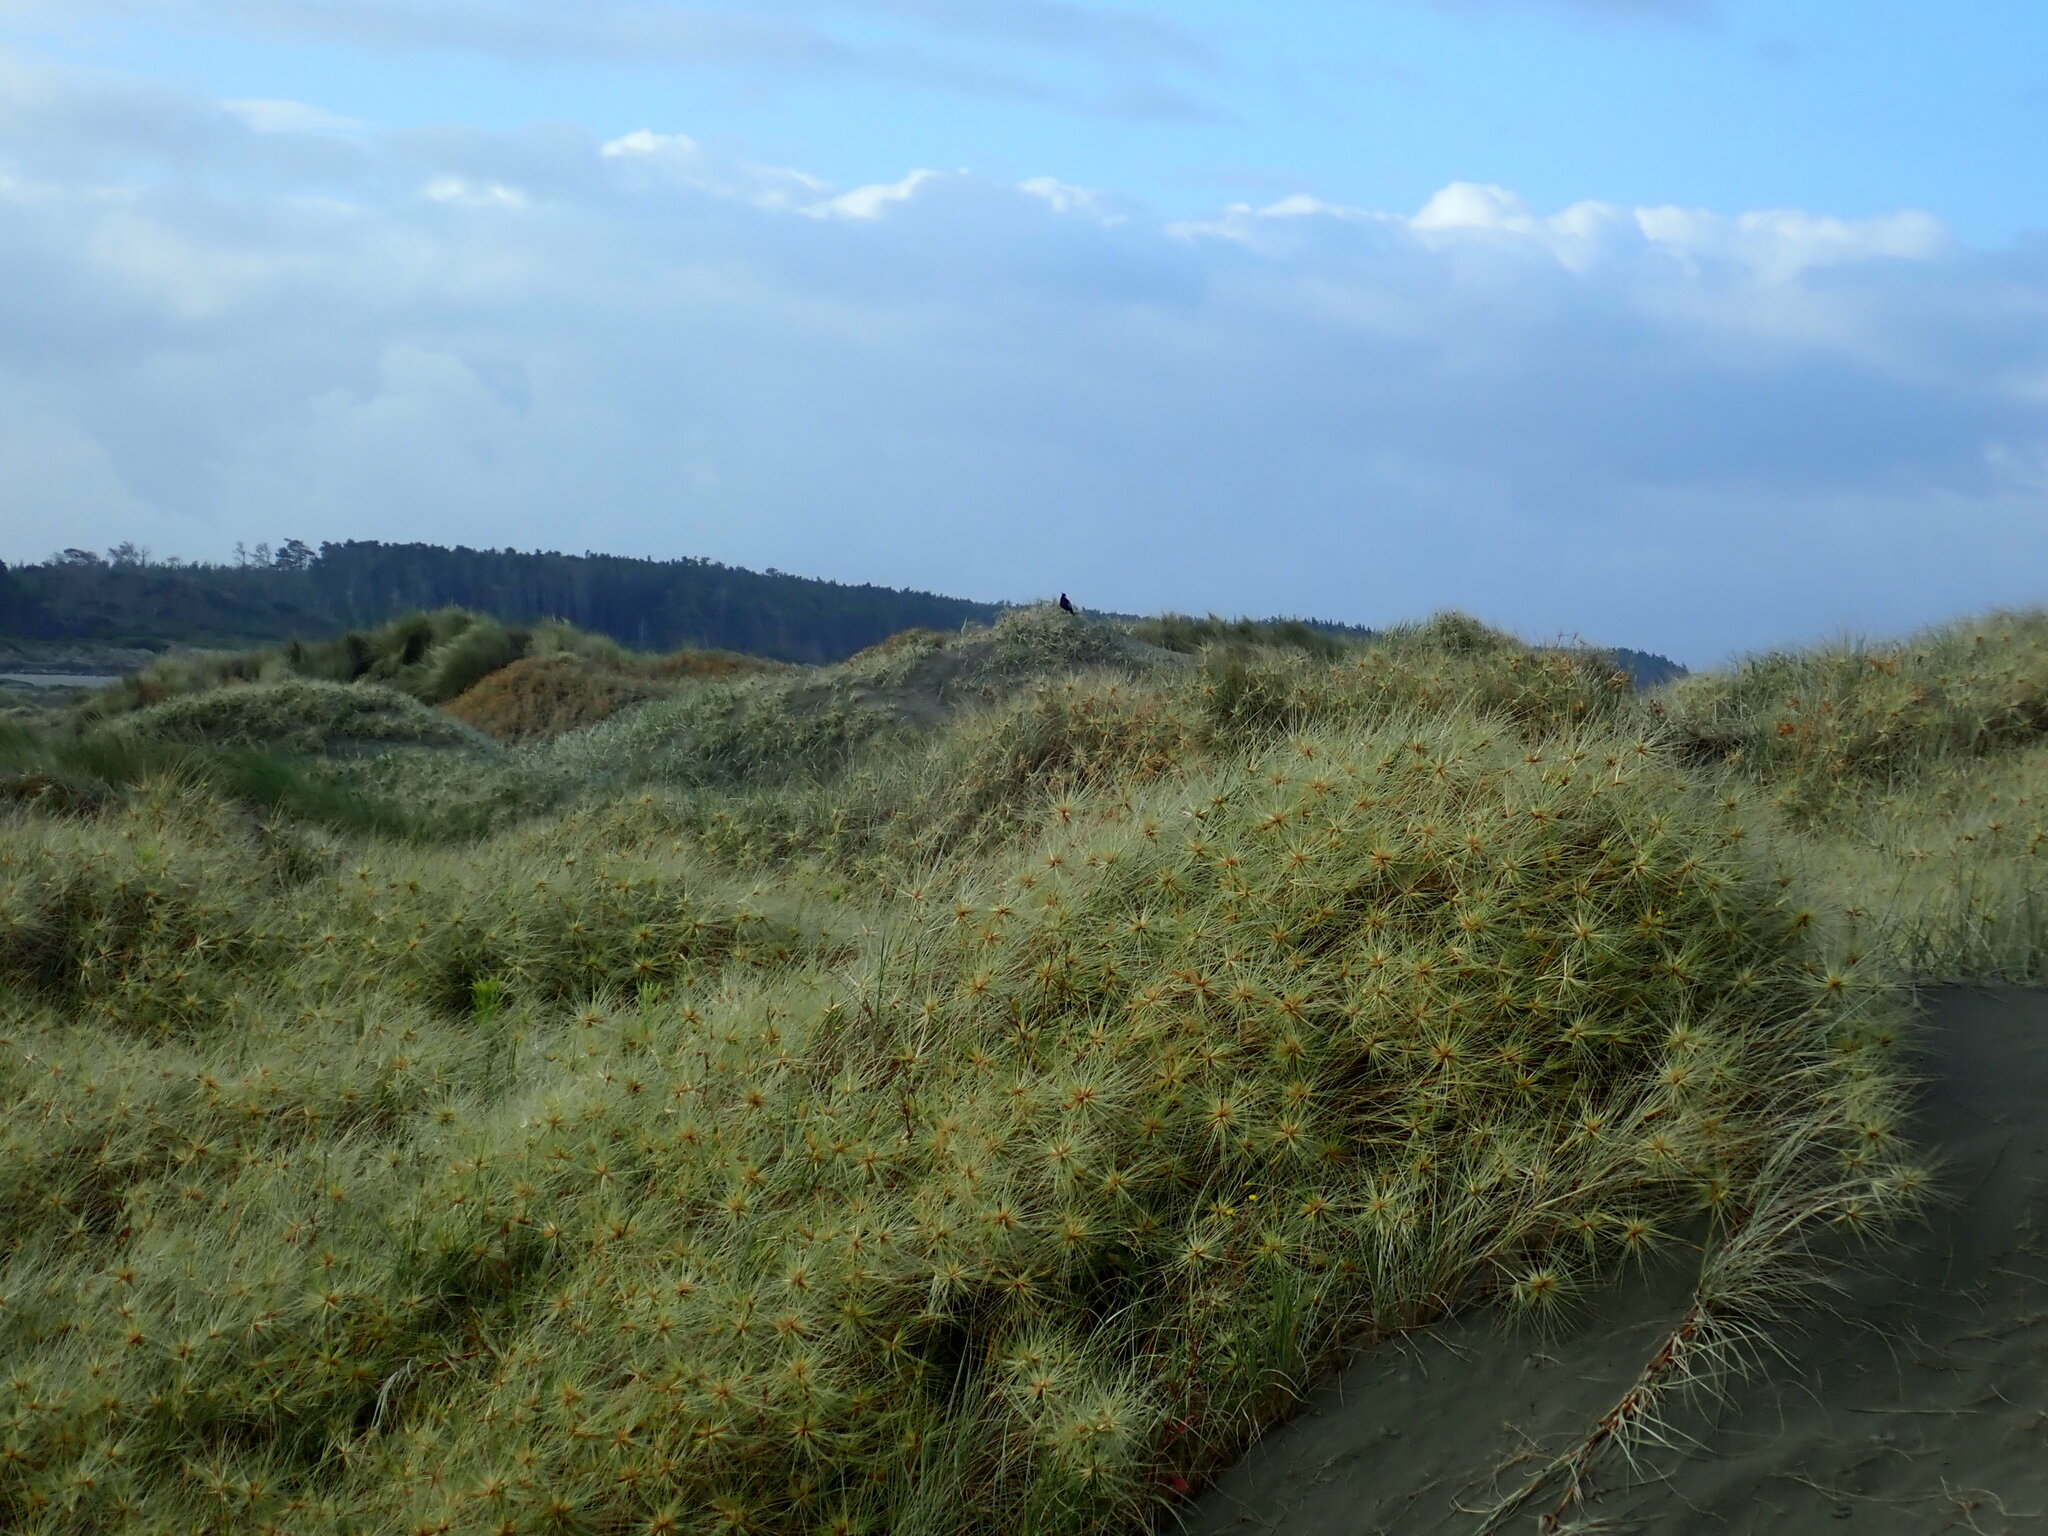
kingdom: Animalia
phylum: Chordata
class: Aves
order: Passeriformes
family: Cracticidae
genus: Gymnorhina
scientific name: Gymnorhina tibicen
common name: Australian magpie
